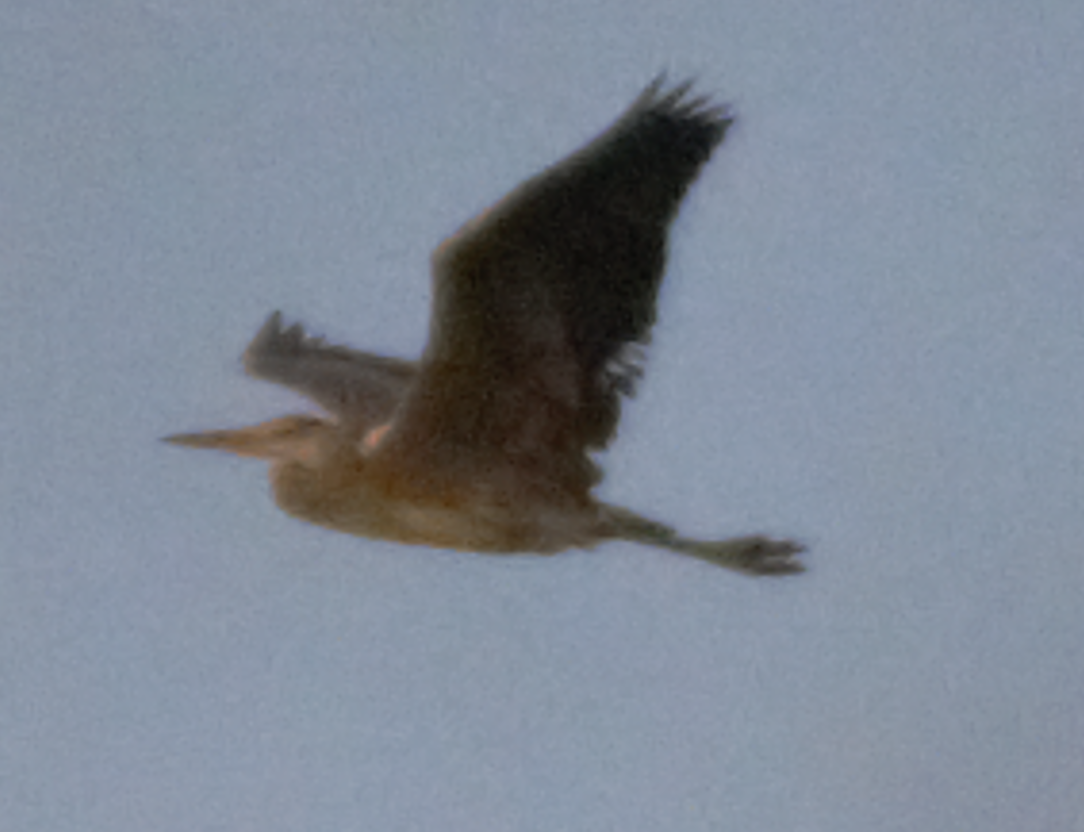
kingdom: Animalia
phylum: Chordata
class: Aves
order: Pelecaniformes
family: Ardeidae
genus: Ardea
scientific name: Ardea cinerea
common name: Grey heron
